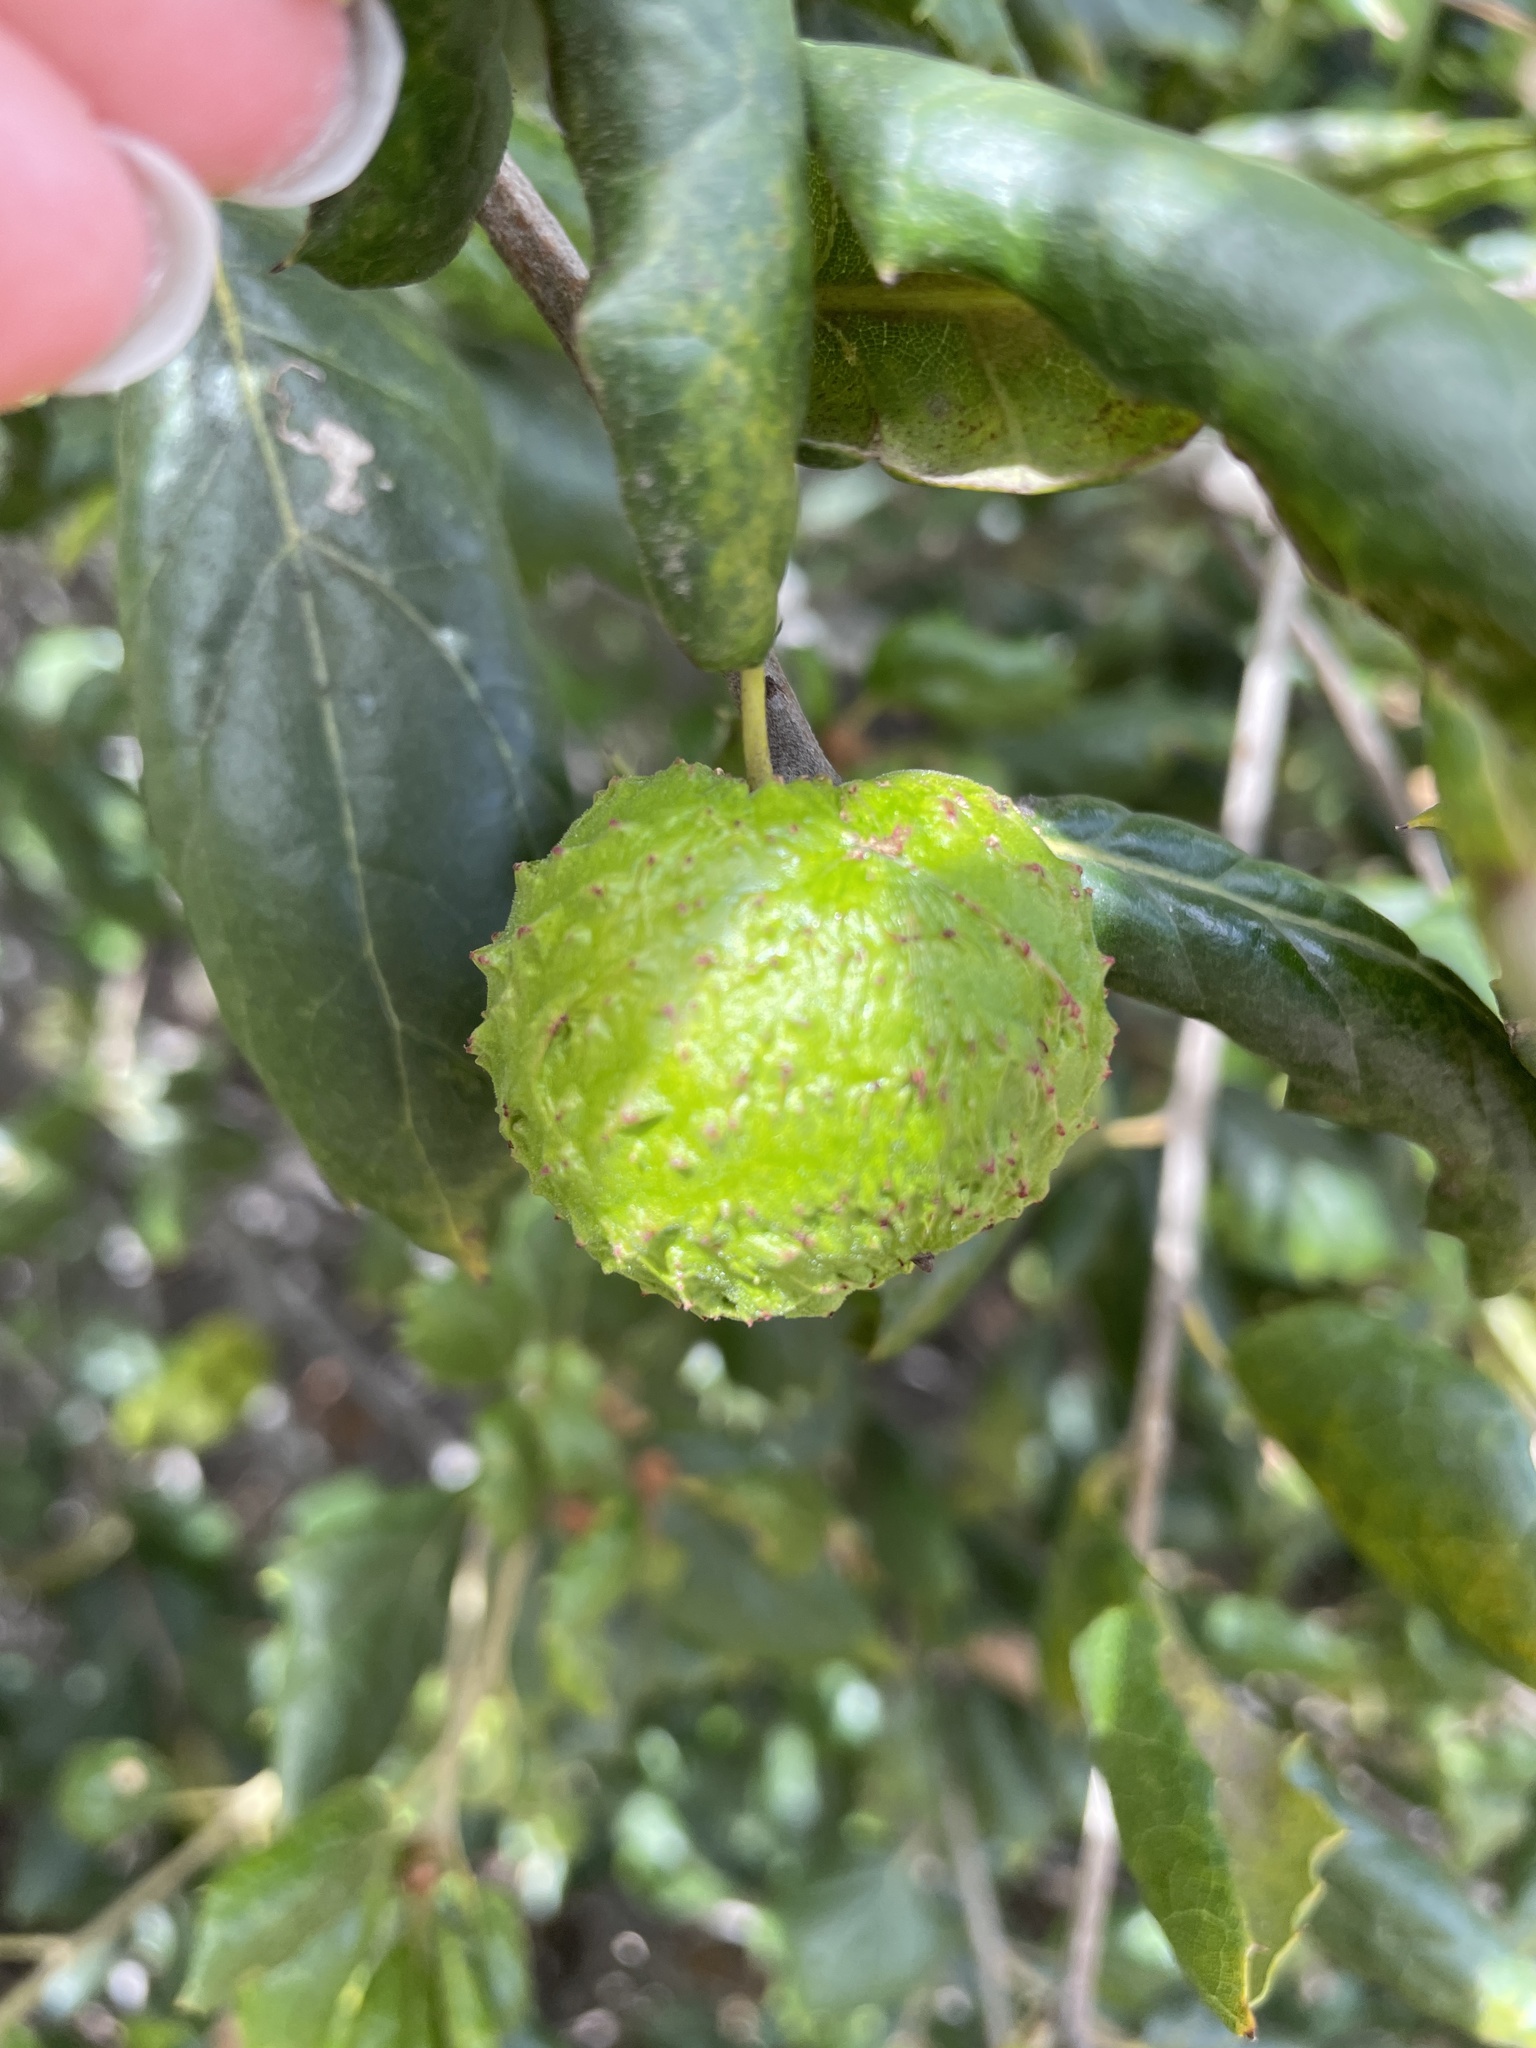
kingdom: Animalia
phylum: Arthropoda
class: Insecta
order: Hymenoptera
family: Cynipidae
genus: Amphibolips
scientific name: Amphibolips quercuspomiformis
